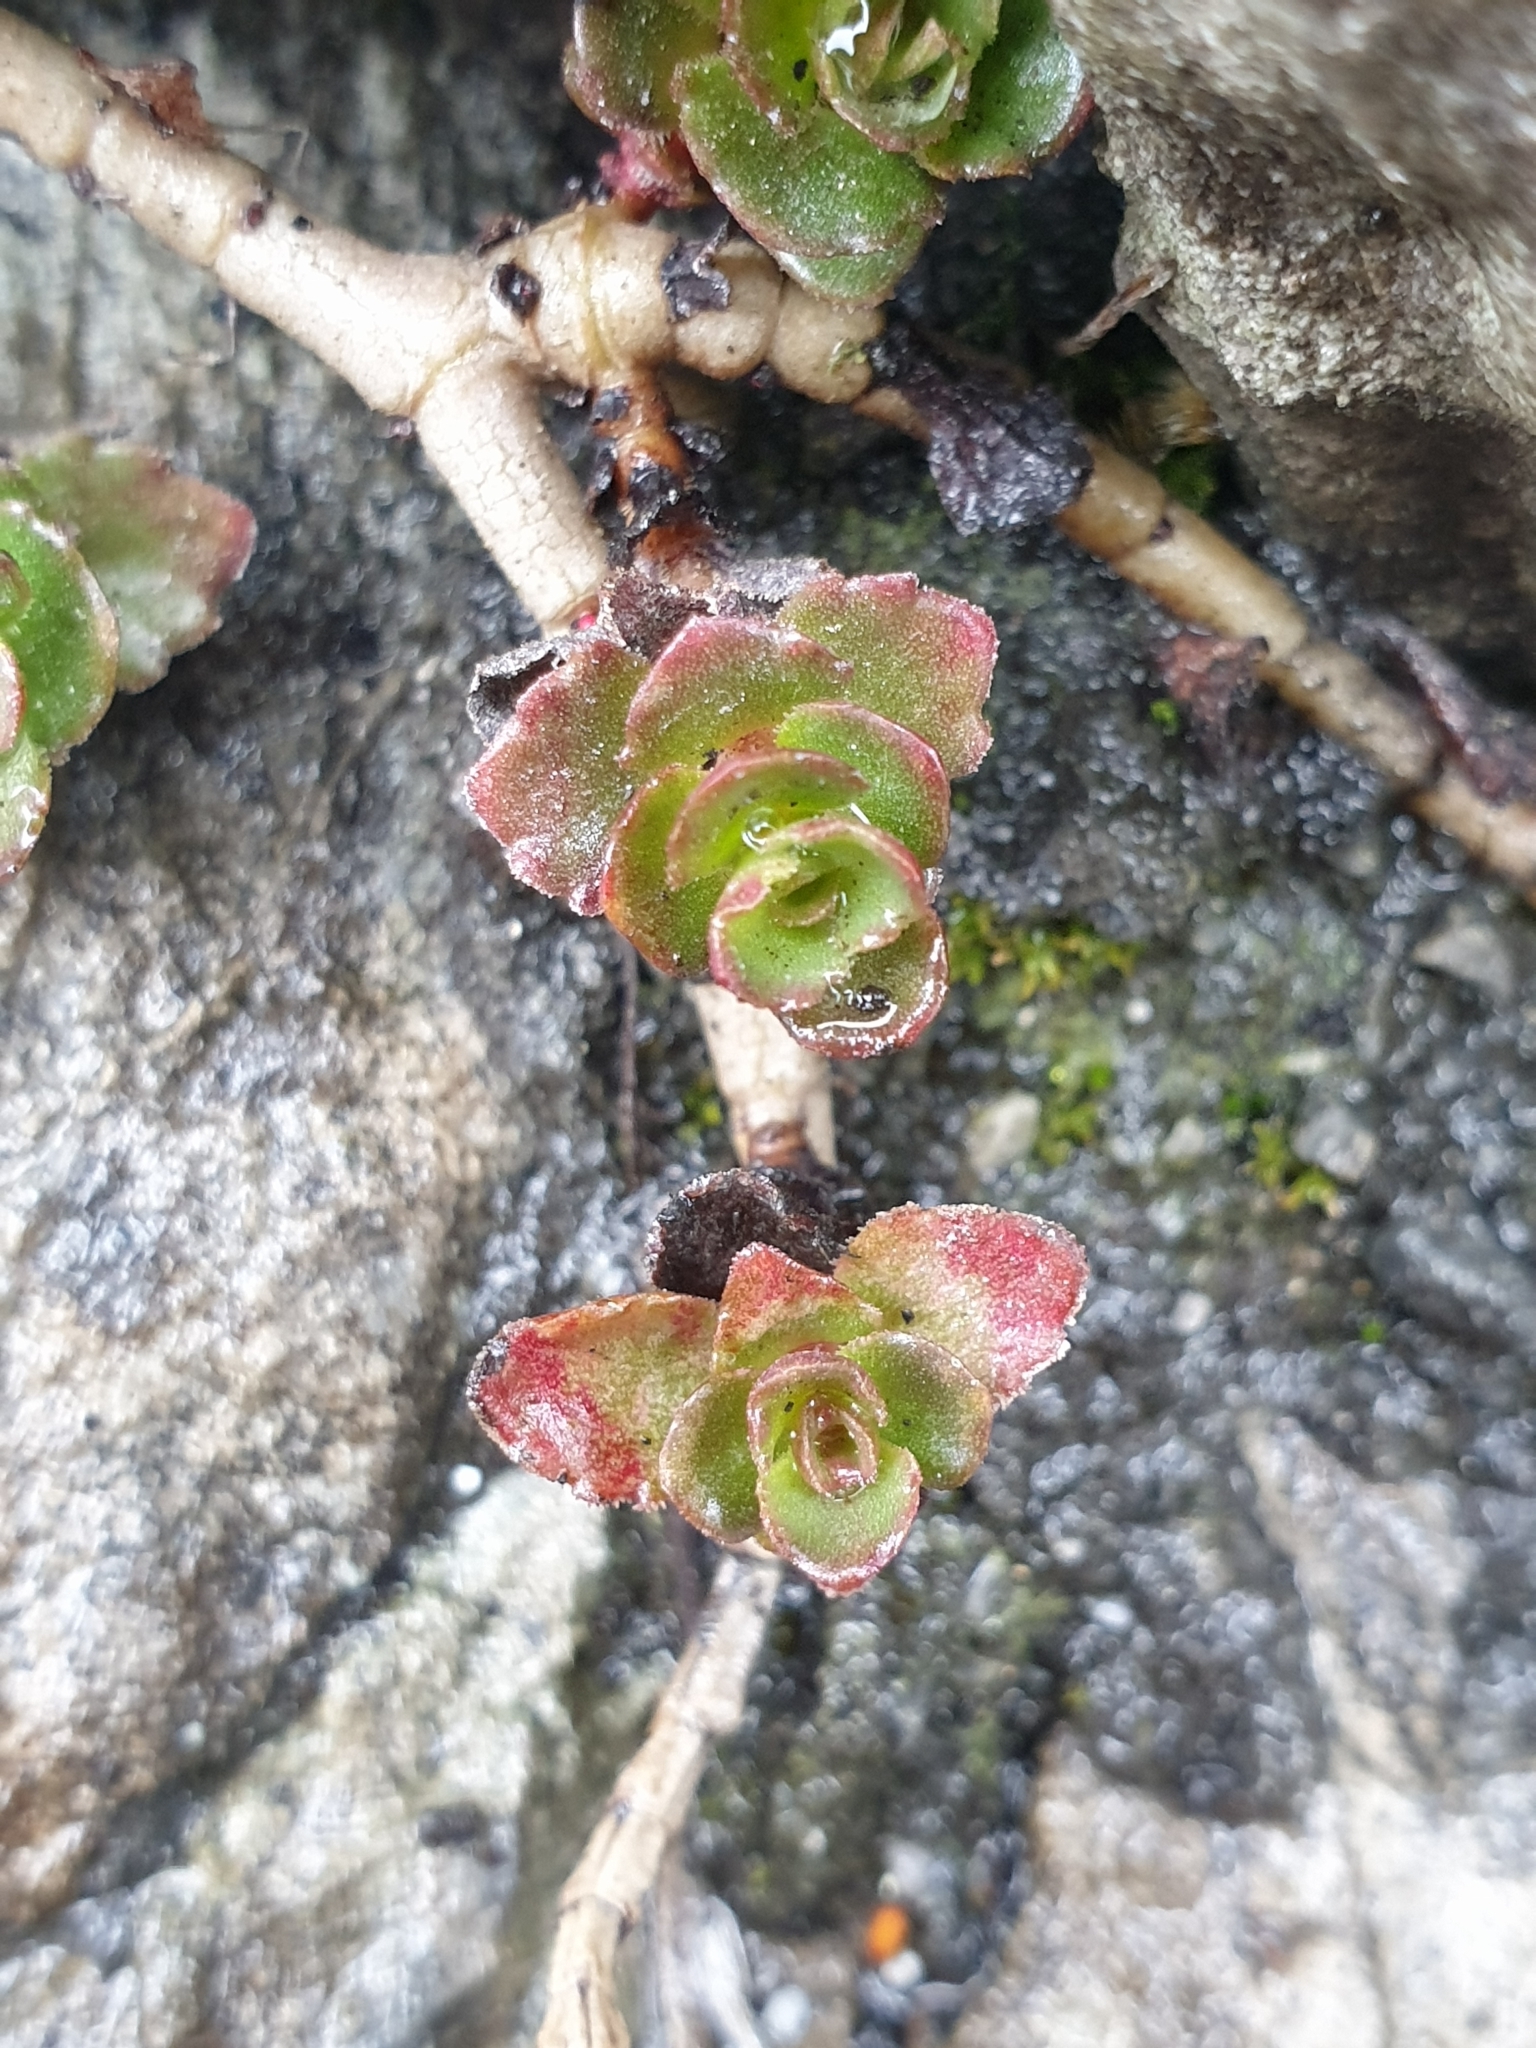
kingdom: Plantae
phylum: Tracheophyta
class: Magnoliopsida
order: Saxifragales
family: Crassulaceae
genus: Phedimus
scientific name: Phedimus spurius
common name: Caucasian stonecrop
